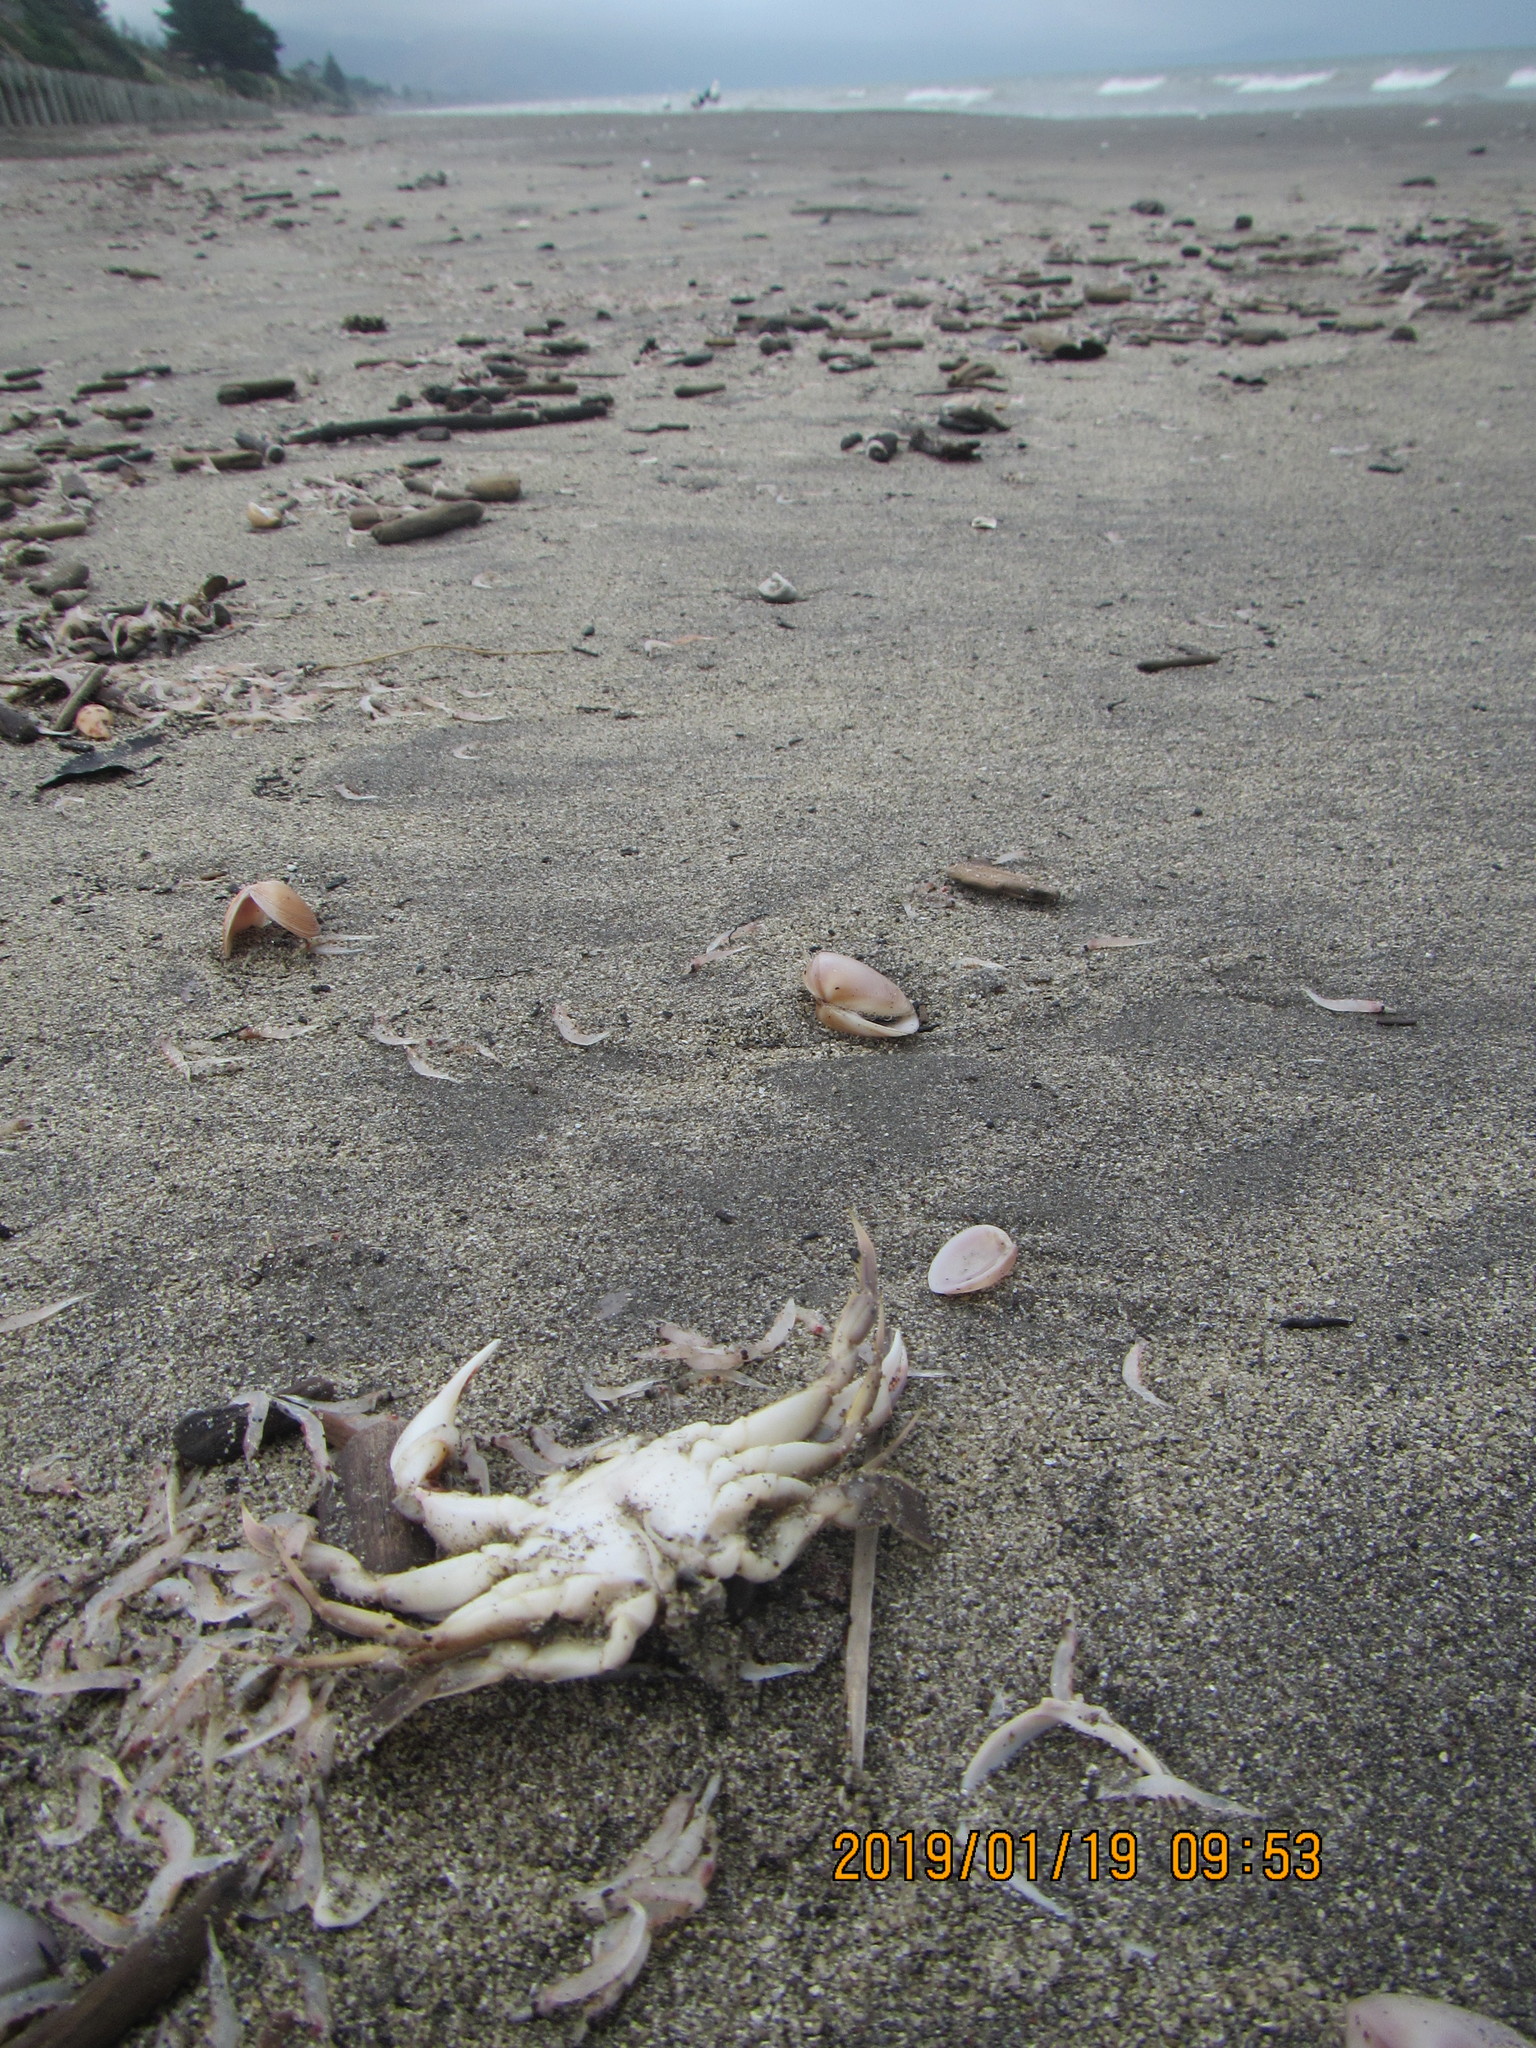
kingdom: Animalia
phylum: Arthropoda
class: Malacostraca
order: Decapoda
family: Ovalipidae
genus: Ovalipes
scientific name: Ovalipes catharus
